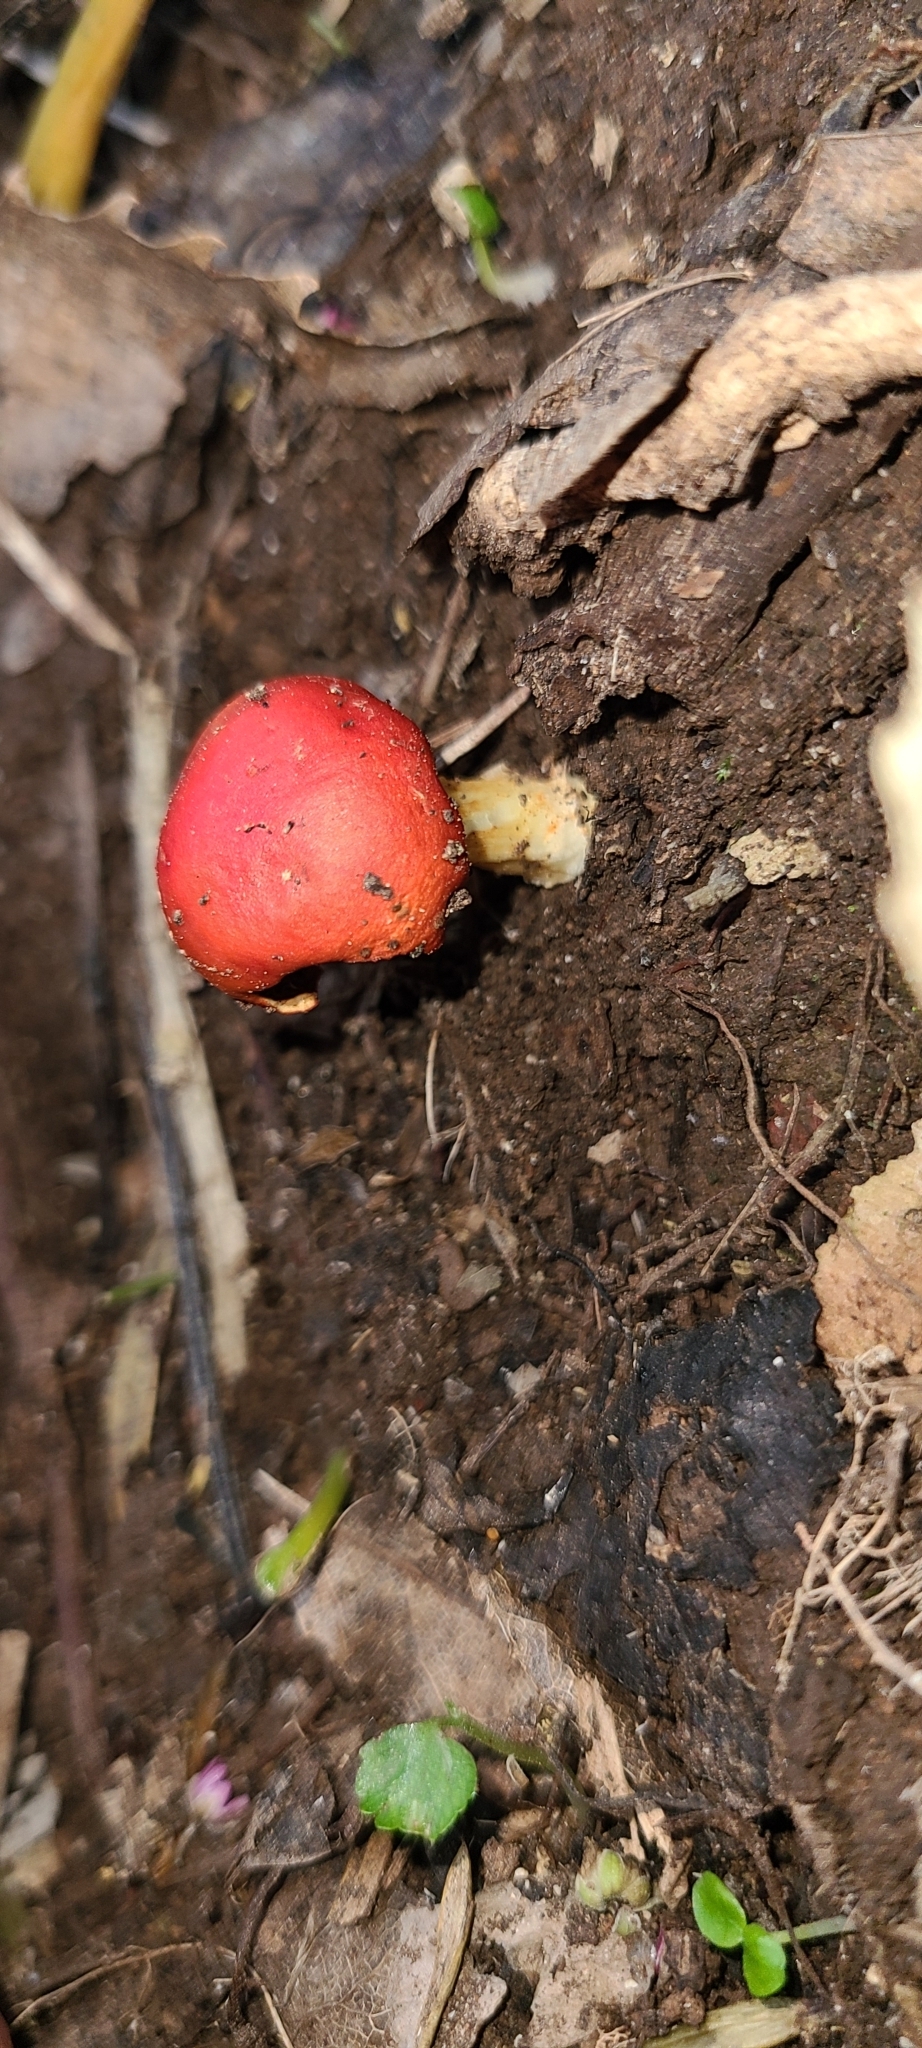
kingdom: Fungi
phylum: Basidiomycota
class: Agaricomycetes
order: Agaricales
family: Strophariaceae
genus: Leratiomyces
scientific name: Leratiomyces erythrocephalus
